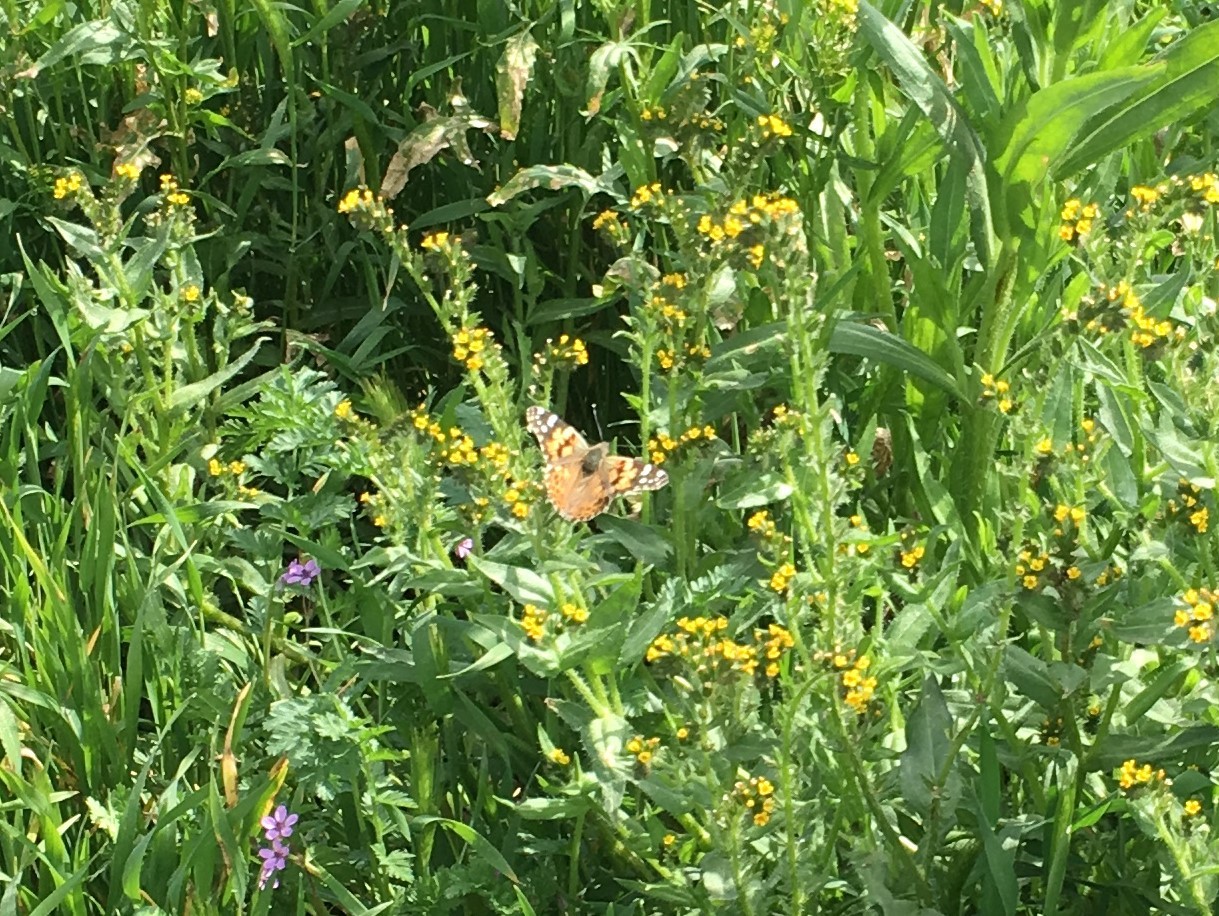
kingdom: Animalia
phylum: Arthropoda
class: Insecta
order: Lepidoptera
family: Nymphalidae
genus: Vanessa
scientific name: Vanessa cardui
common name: Painted lady
